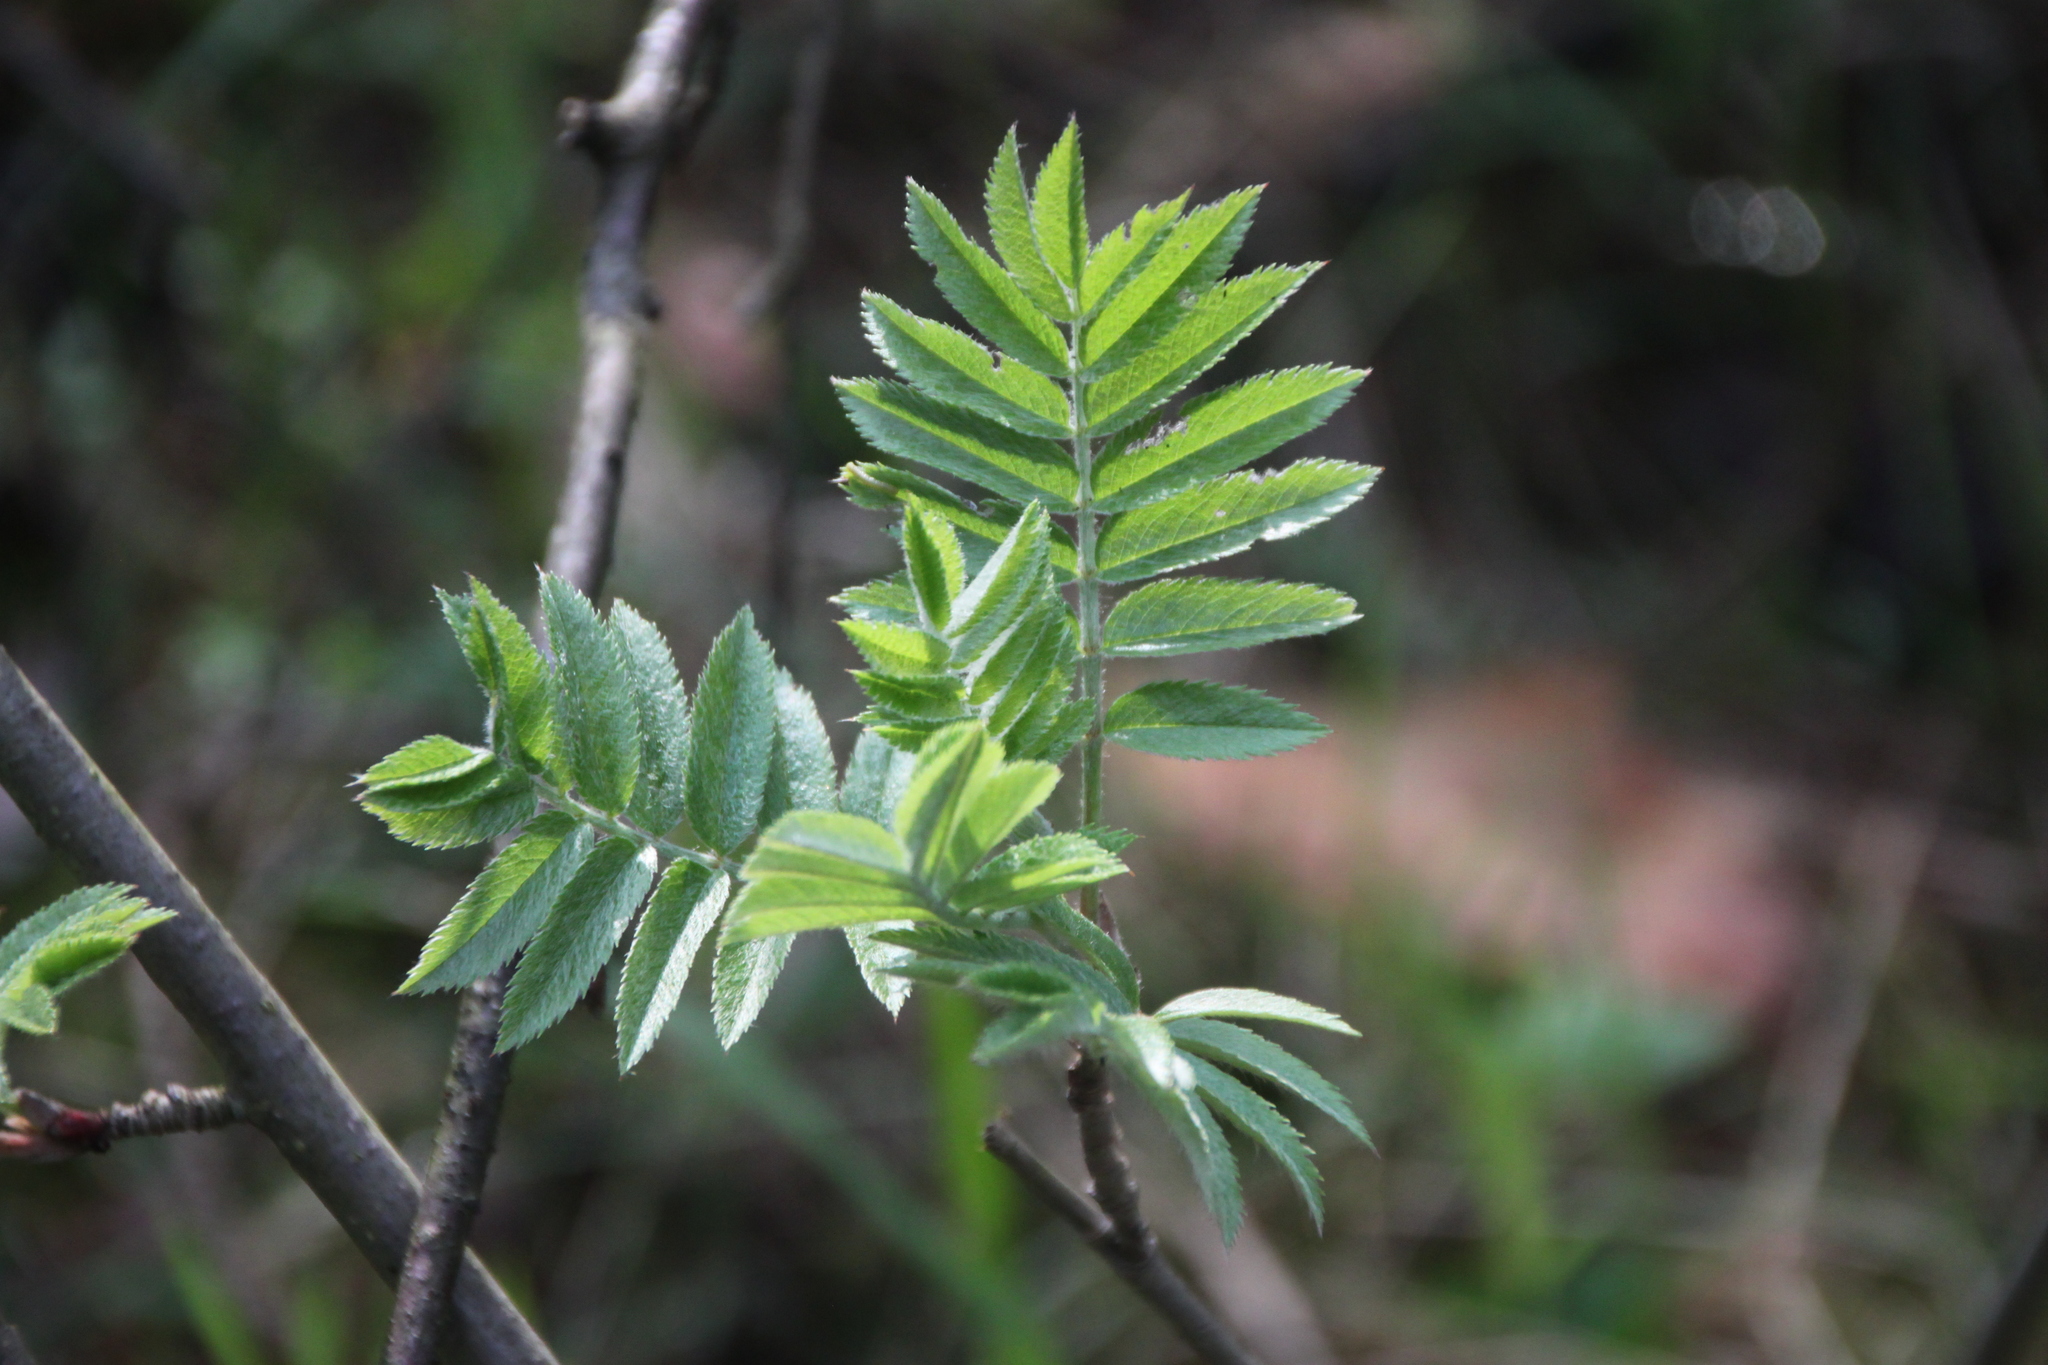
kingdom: Plantae
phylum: Tracheophyta
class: Magnoliopsida
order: Rosales
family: Rosaceae
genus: Sorbus
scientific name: Sorbus aucuparia
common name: Rowan
